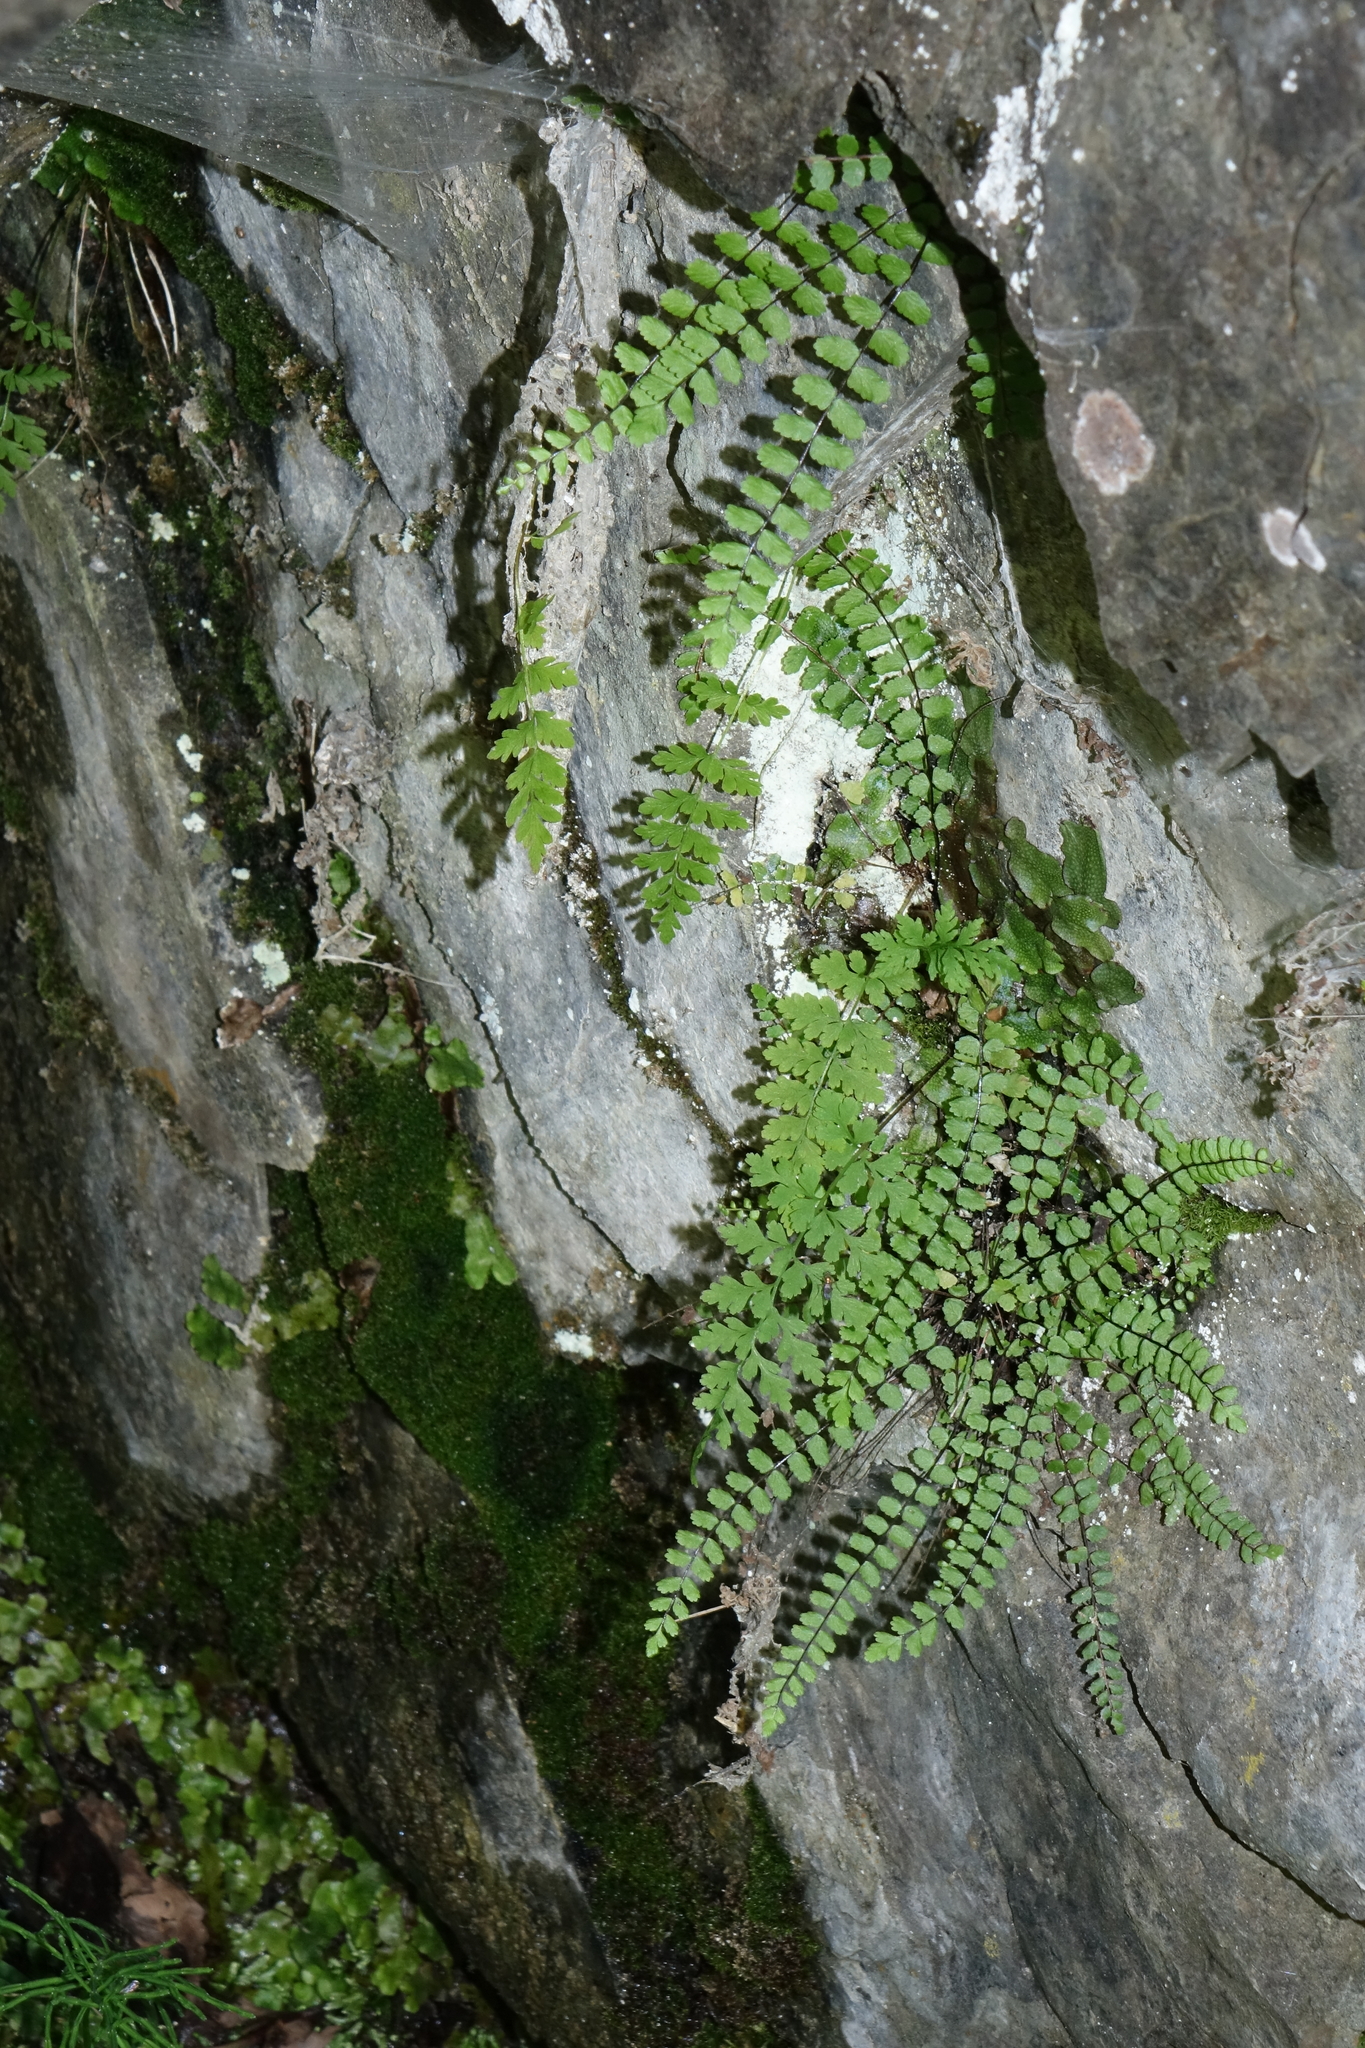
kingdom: Plantae
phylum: Tracheophyta
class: Polypodiopsida
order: Polypodiales
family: Aspleniaceae
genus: Asplenium
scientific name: Asplenium trichomanes
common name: Maidenhair spleenwort
